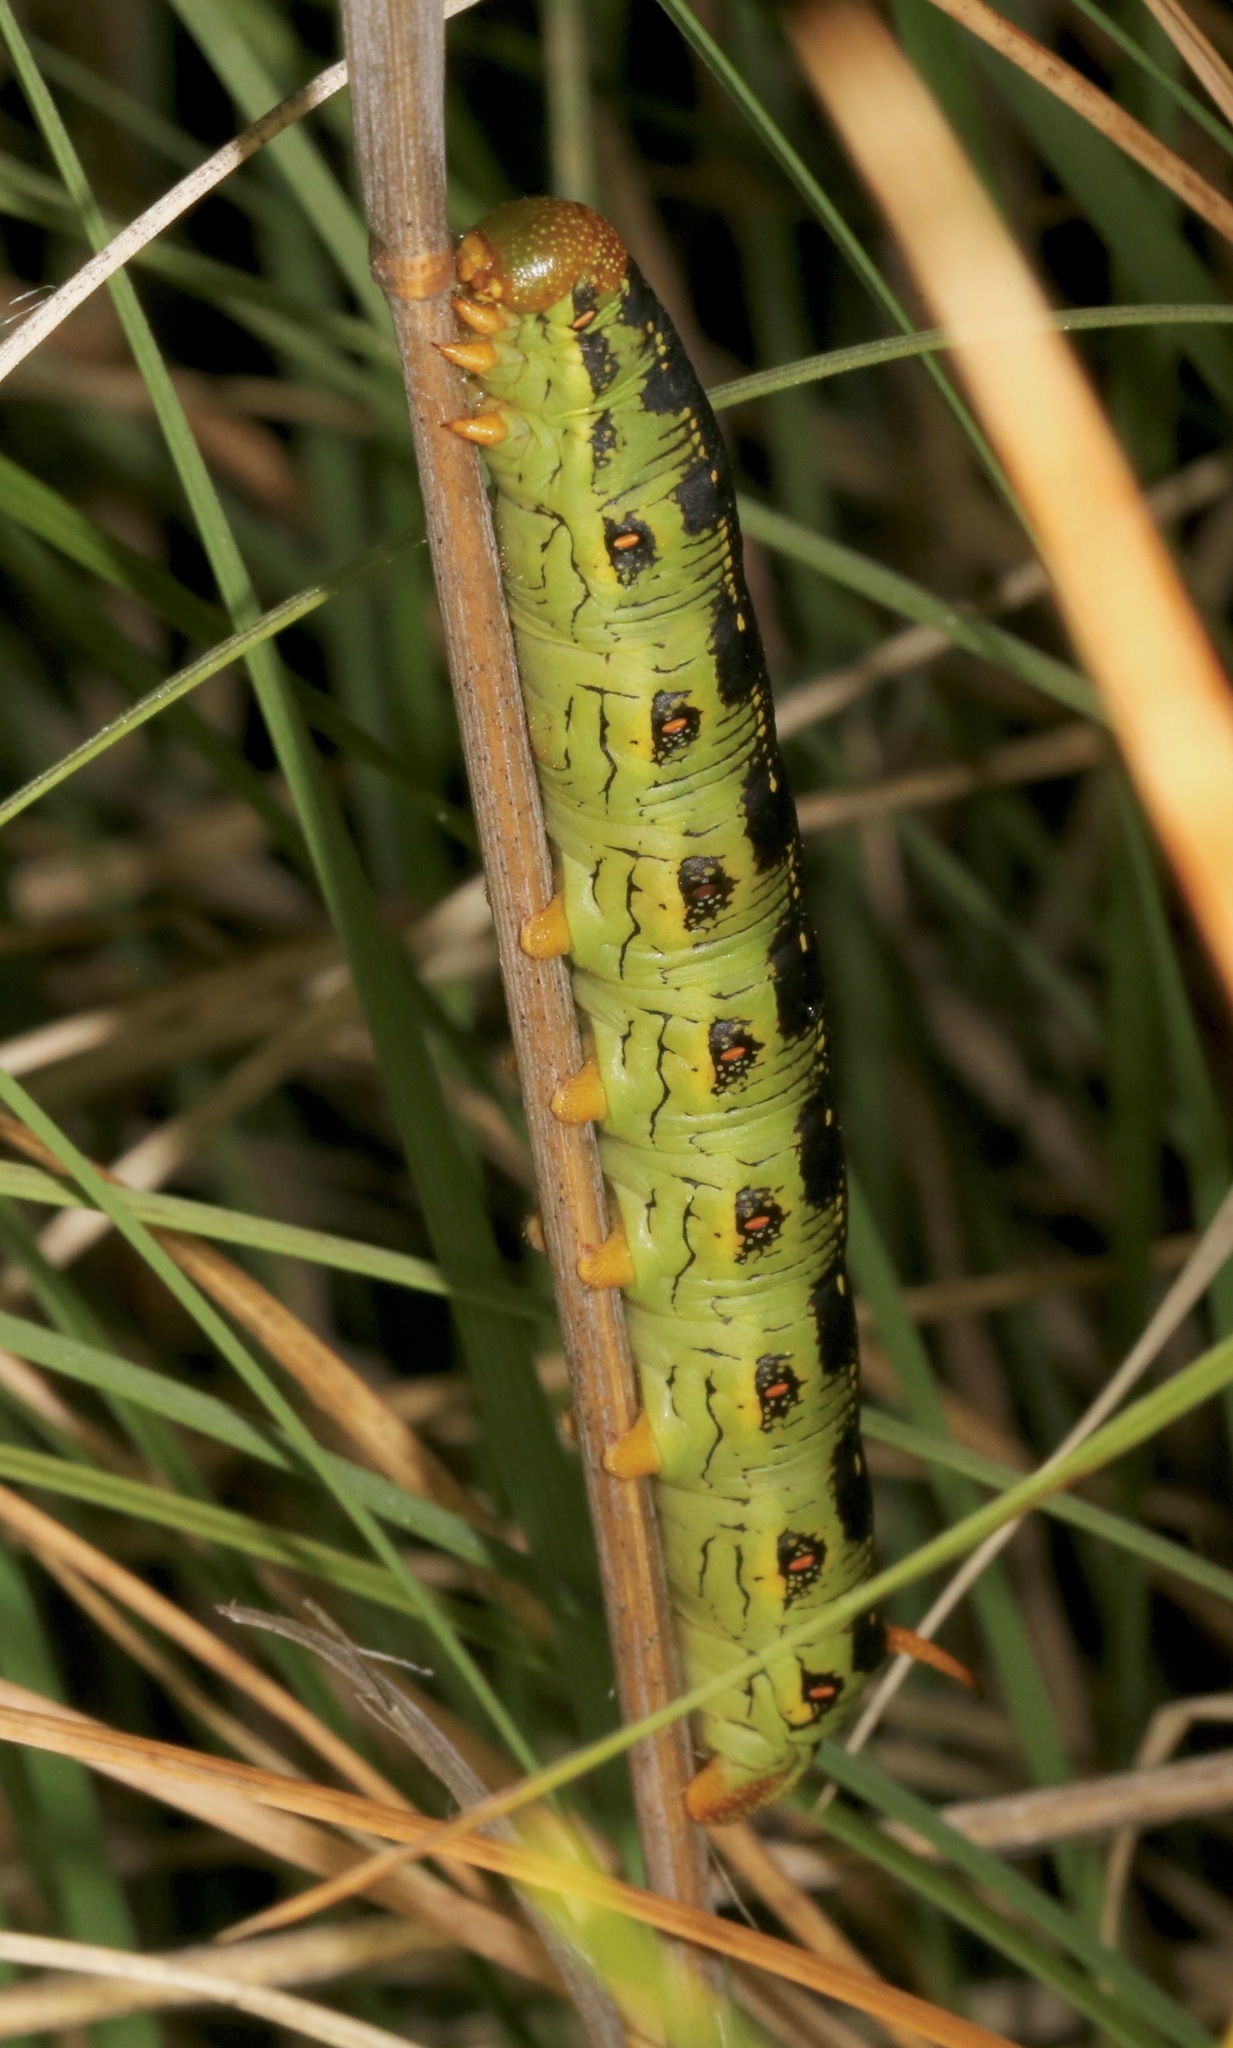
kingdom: Animalia
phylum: Arthropoda
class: Insecta
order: Lepidoptera
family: Sphingidae
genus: Hyles
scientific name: Hyles lineata
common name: White-lined sphinx
